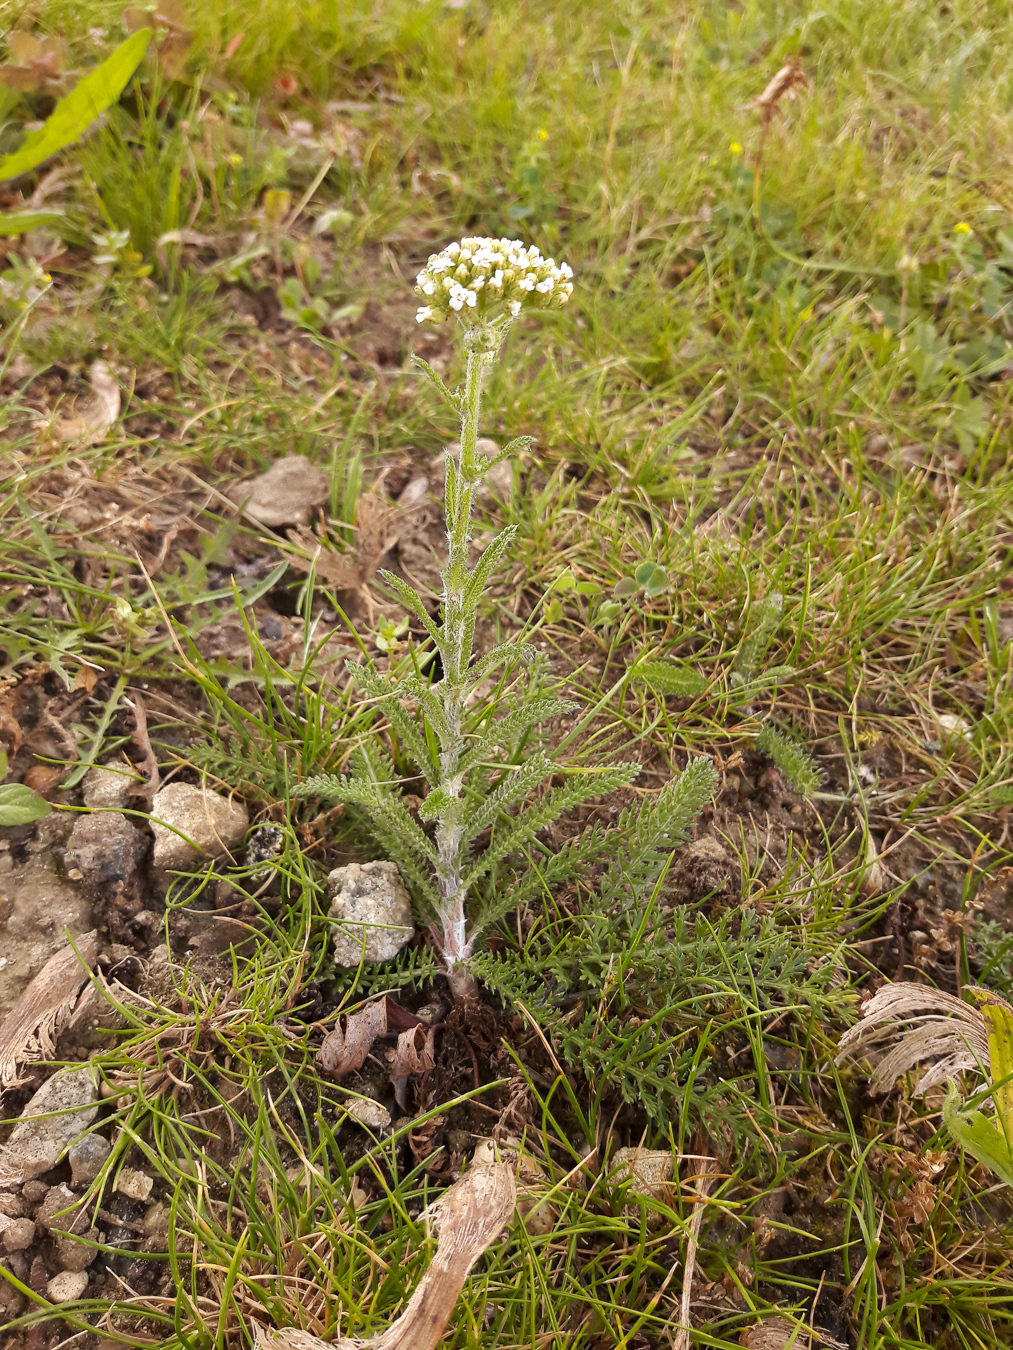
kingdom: Plantae
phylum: Tracheophyta
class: Magnoliopsida
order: Asterales
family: Asteraceae
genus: Achillea
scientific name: Achillea millefolium
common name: Yarrow
